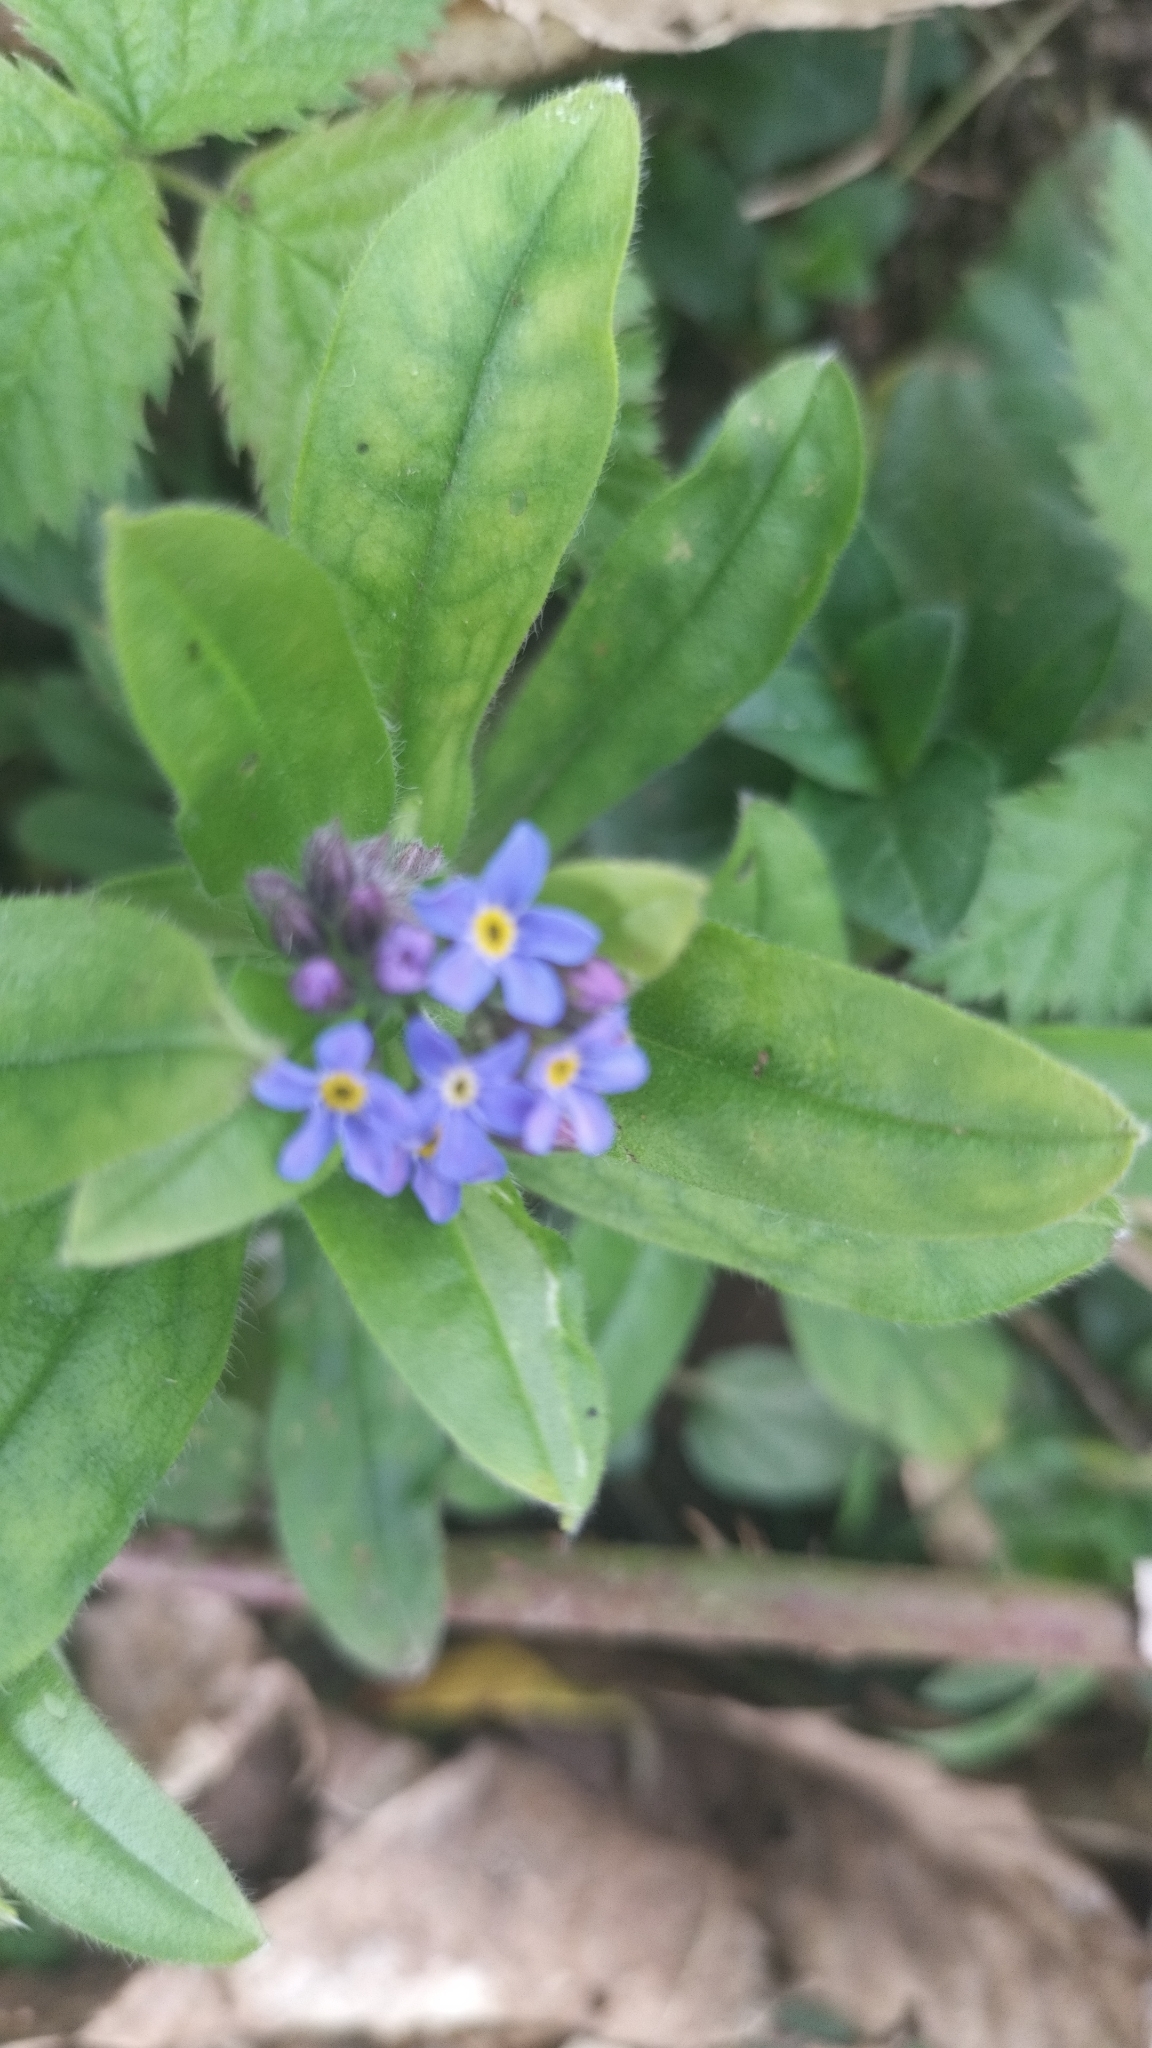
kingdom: Plantae
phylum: Tracheophyta
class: Magnoliopsida
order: Boraginales
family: Boraginaceae
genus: Myosotis
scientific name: Myosotis sylvatica
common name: Wood forget-me-not
